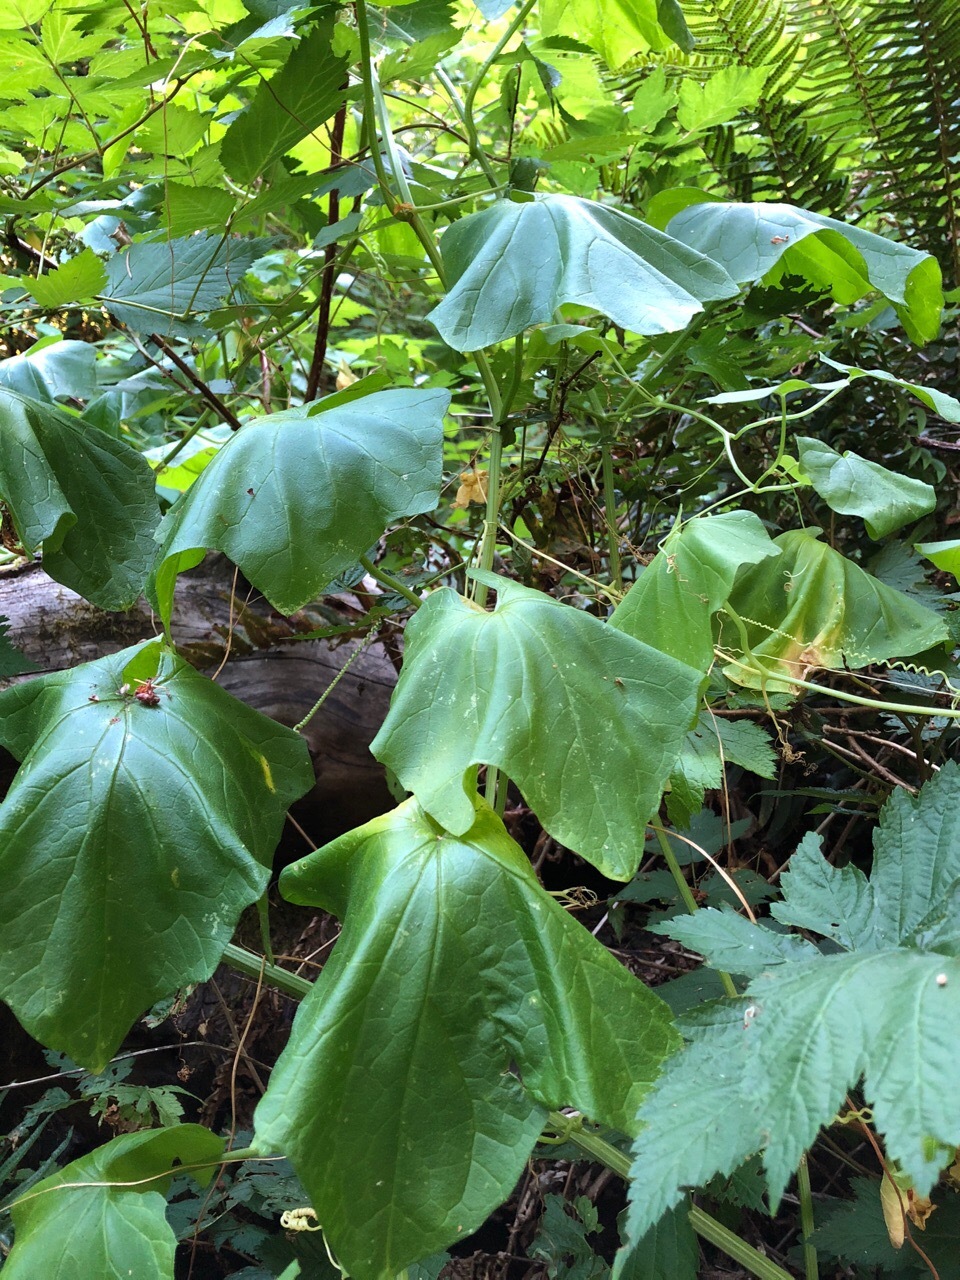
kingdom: Plantae
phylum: Tracheophyta
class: Magnoliopsida
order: Cucurbitales
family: Cucurbitaceae
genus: Marah
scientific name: Marah oregana
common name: Coastal manroot
